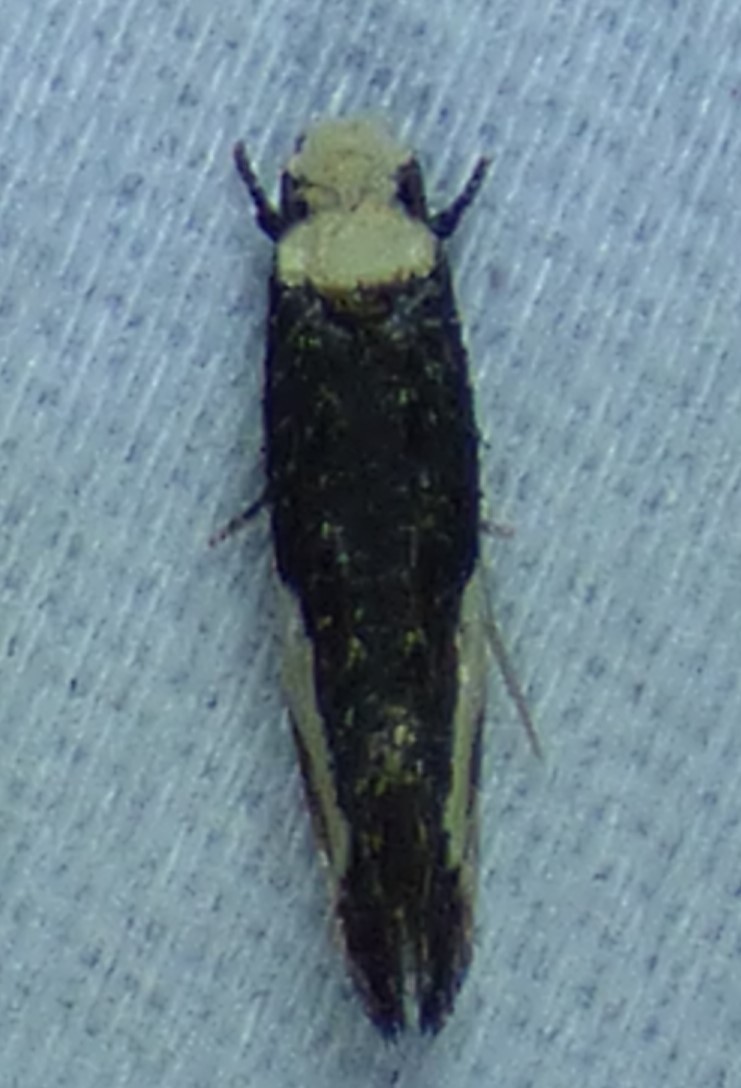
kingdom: Animalia
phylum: Arthropoda
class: Insecta
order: Lepidoptera
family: Tineidae
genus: Monopis
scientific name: Monopis longella
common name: Pavlovski's monopis moth
